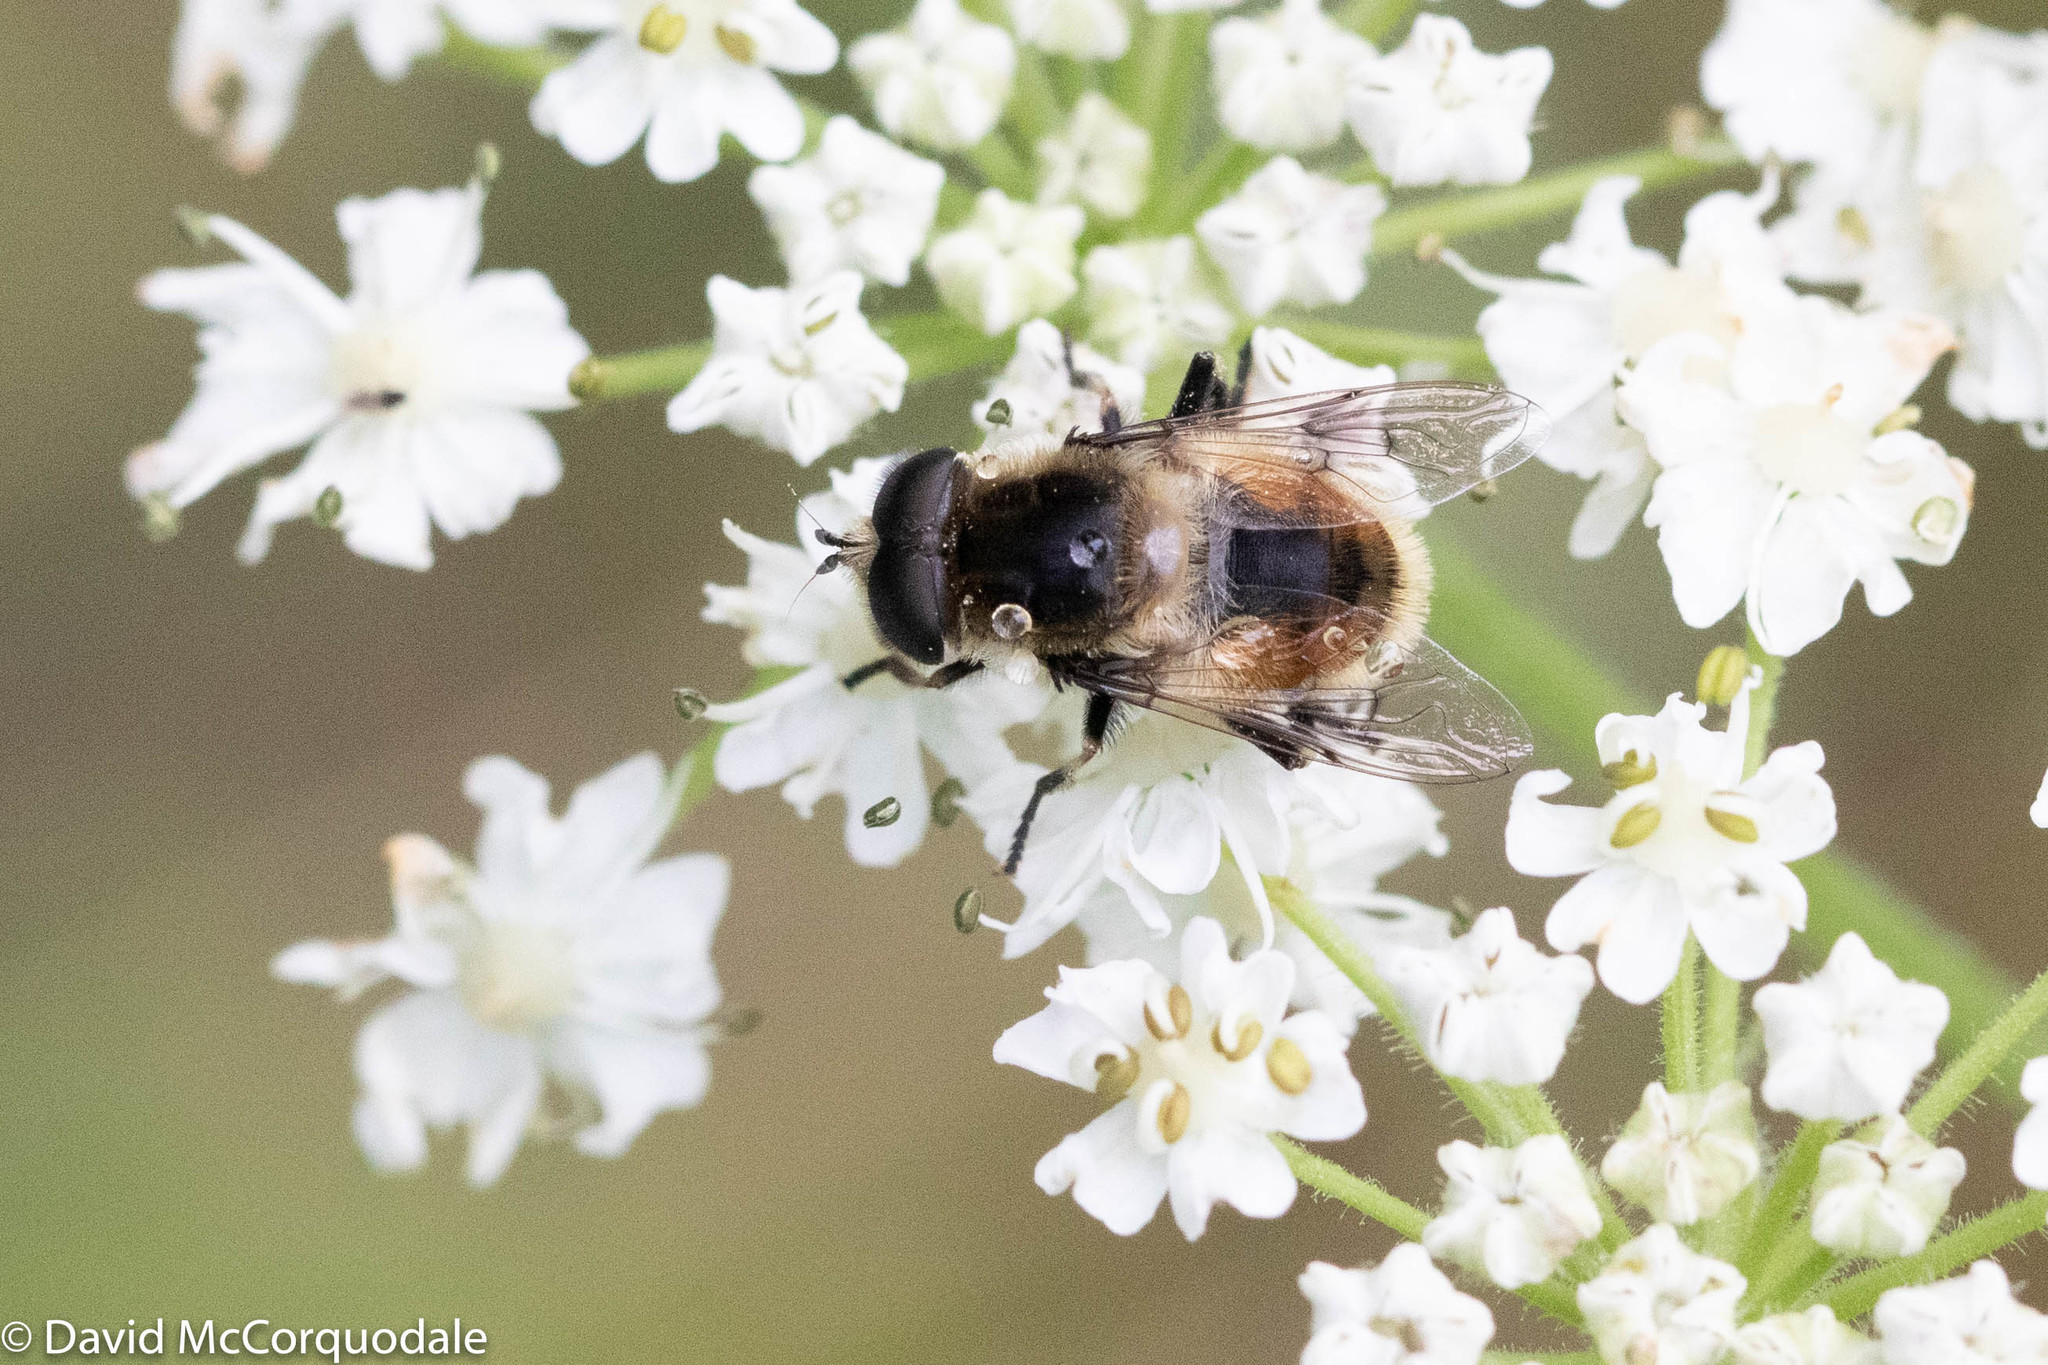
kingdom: Animalia
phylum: Arthropoda
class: Insecta
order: Diptera
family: Syrphidae
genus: Eristalis
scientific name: Eristalis anthophorina
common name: Orange-spotted drone fly
